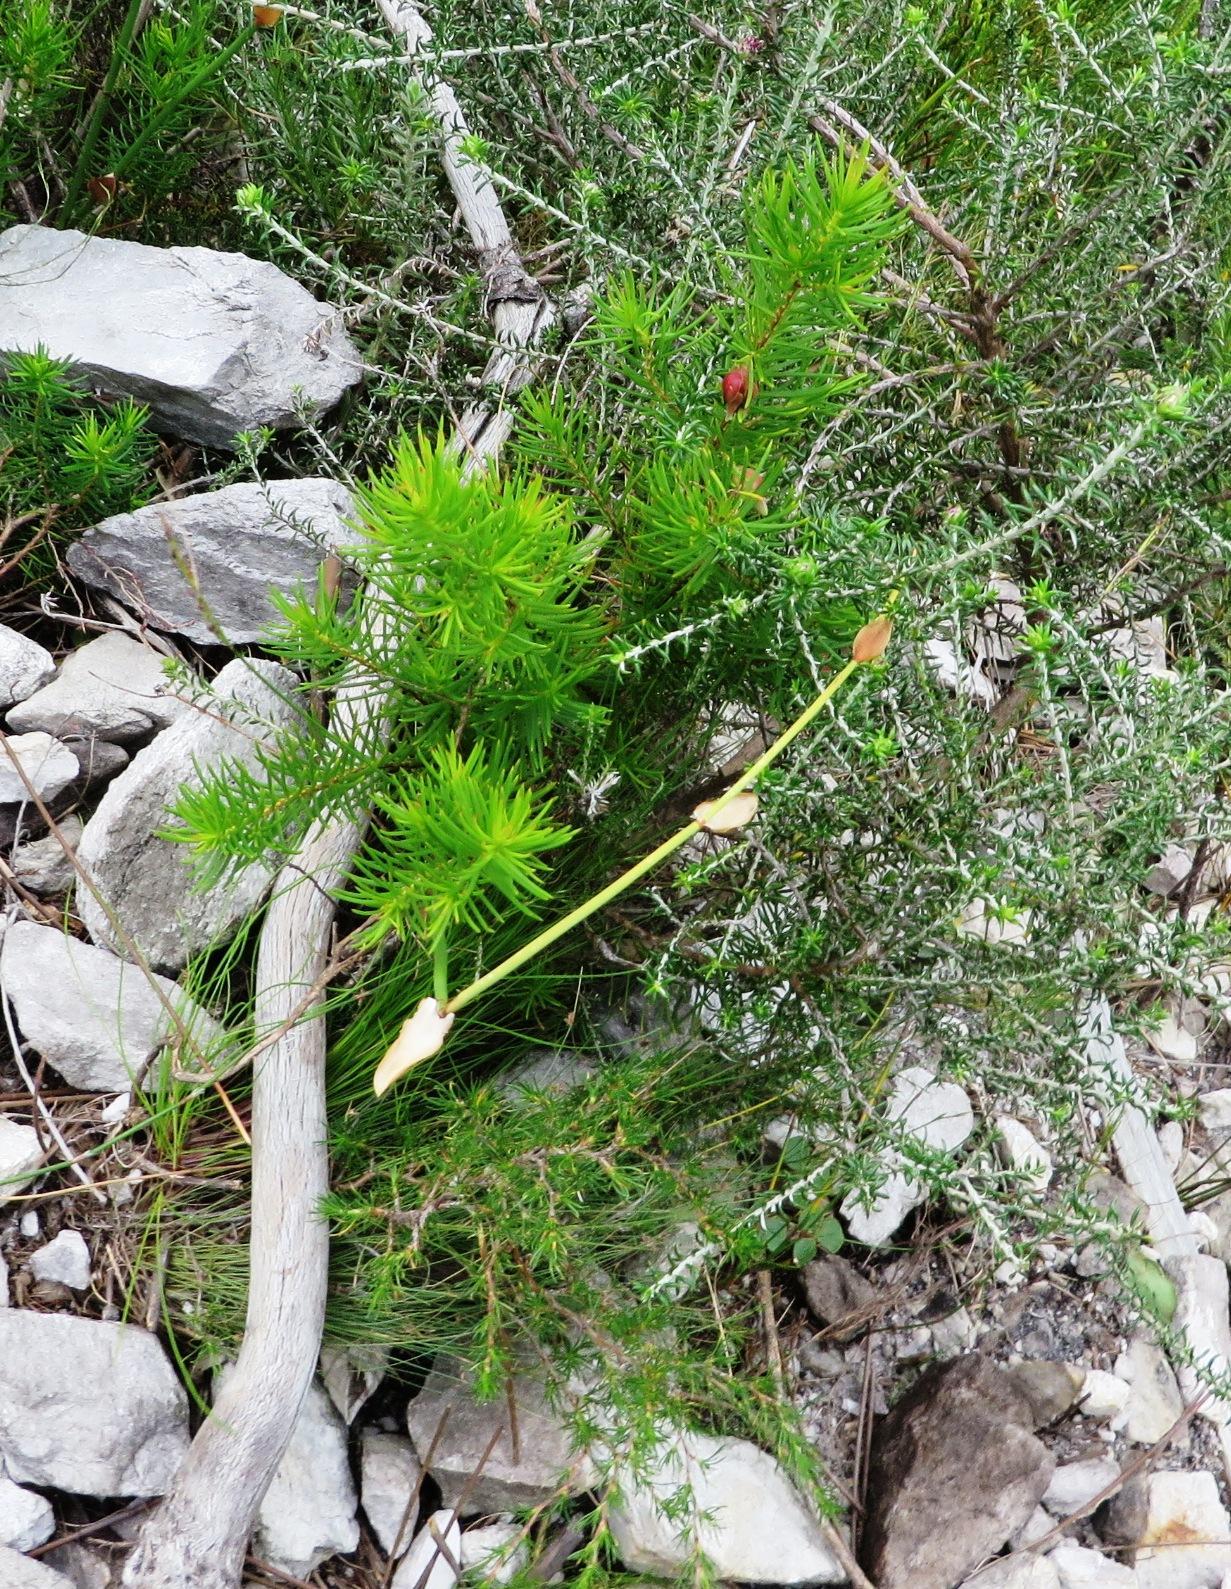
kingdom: Plantae
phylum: Tracheophyta
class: Magnoliopsida
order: Ericales
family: Ericaceae
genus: Erica
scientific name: Erica lanuginosa
